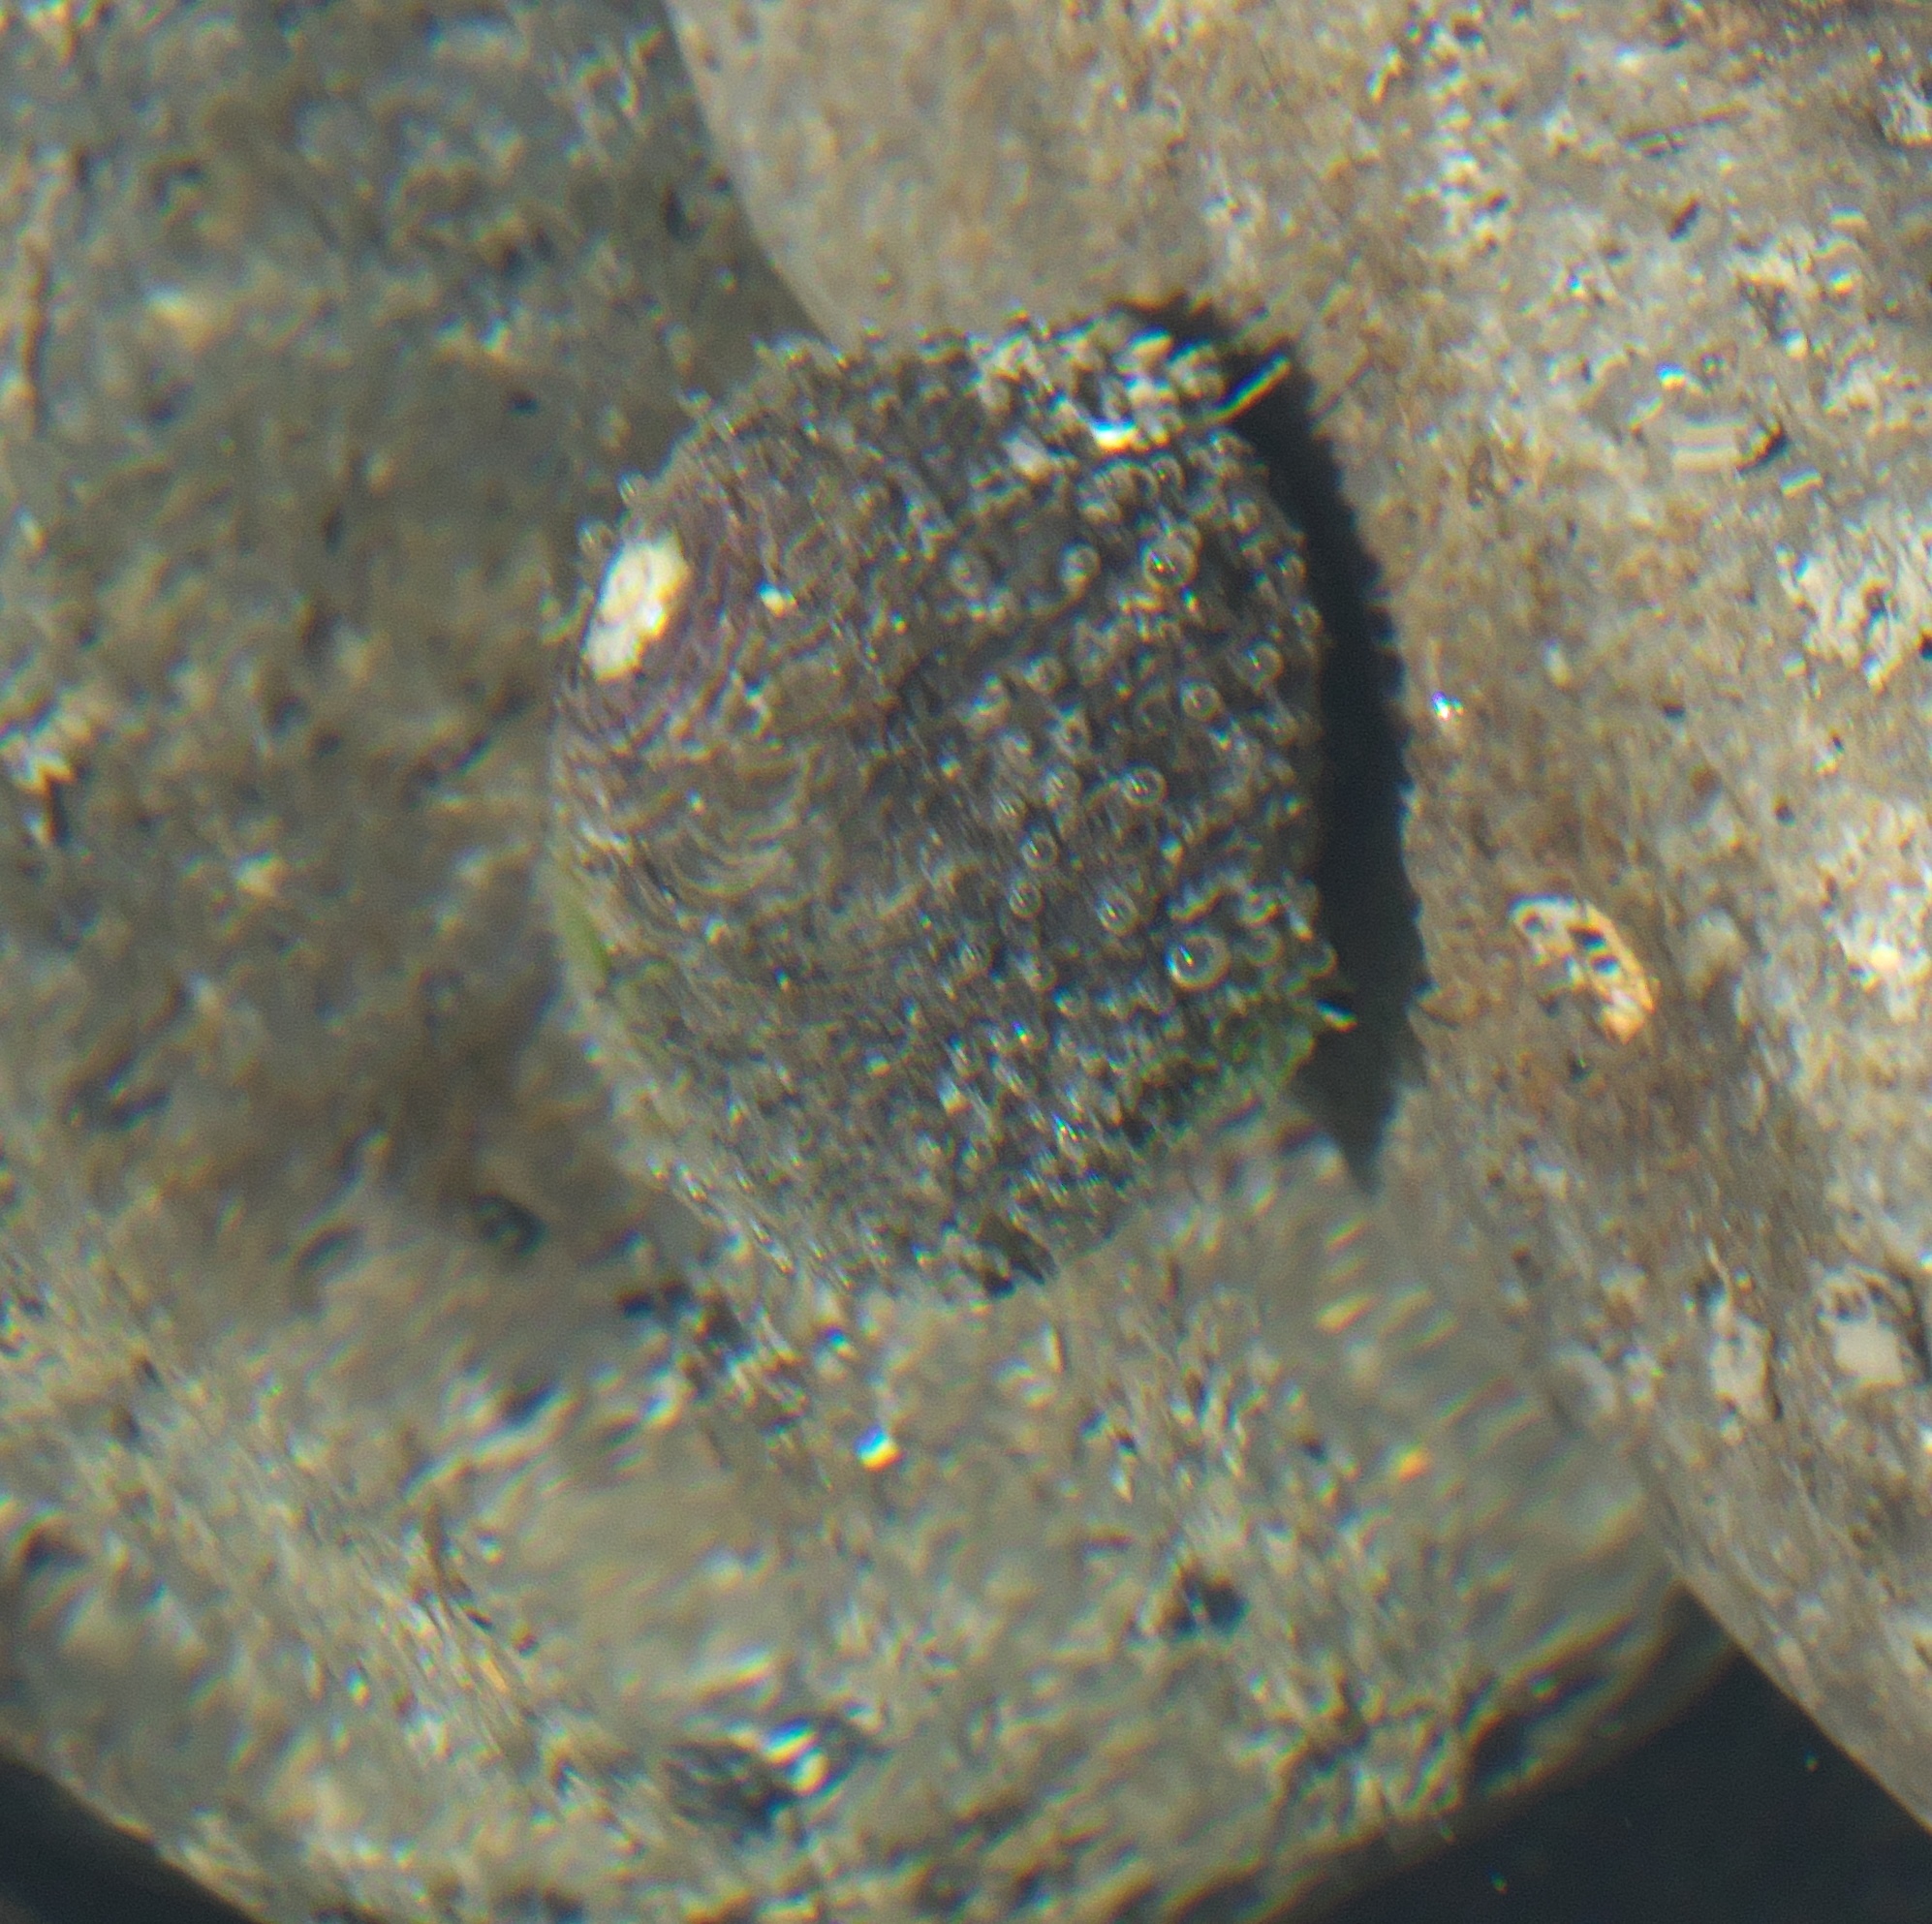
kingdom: Animalia
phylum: Mollusca
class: Gastropoda
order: Trochida
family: Trochidae
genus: Diloma
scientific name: Diloma aethiops
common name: Scorched monodont
